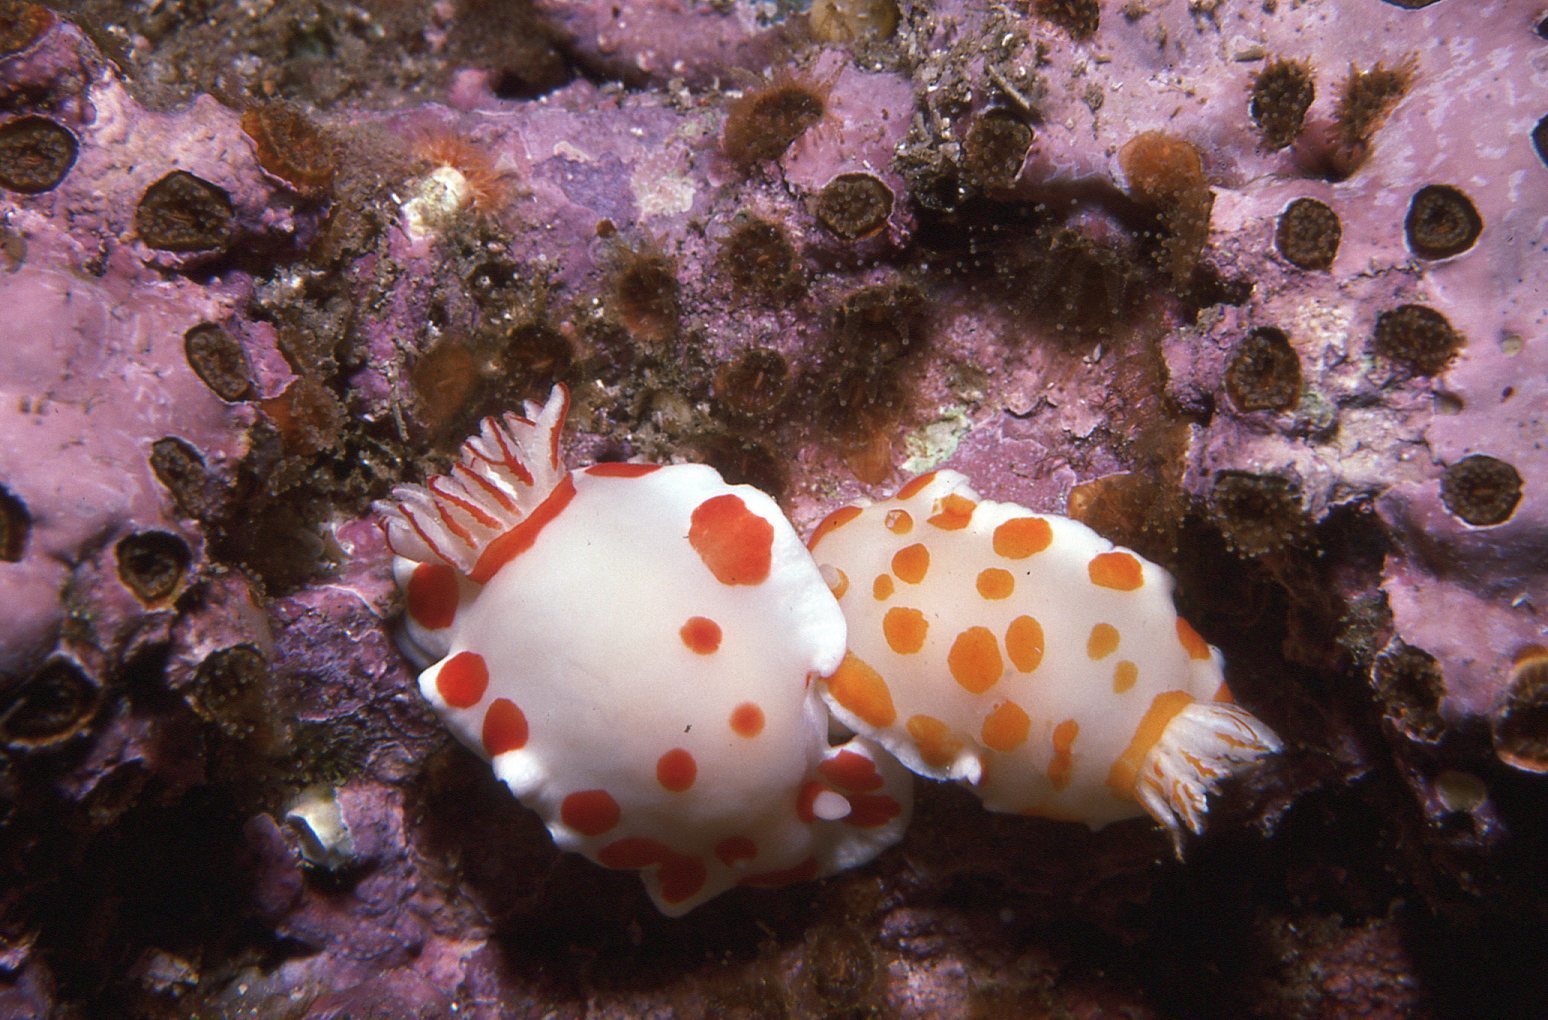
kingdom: Animalia
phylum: Mollusca
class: Gastropoda
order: Nudibranchia
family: Chromodorididae
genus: Goniobranchus
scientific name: Goniobranchus tasmaniensis
